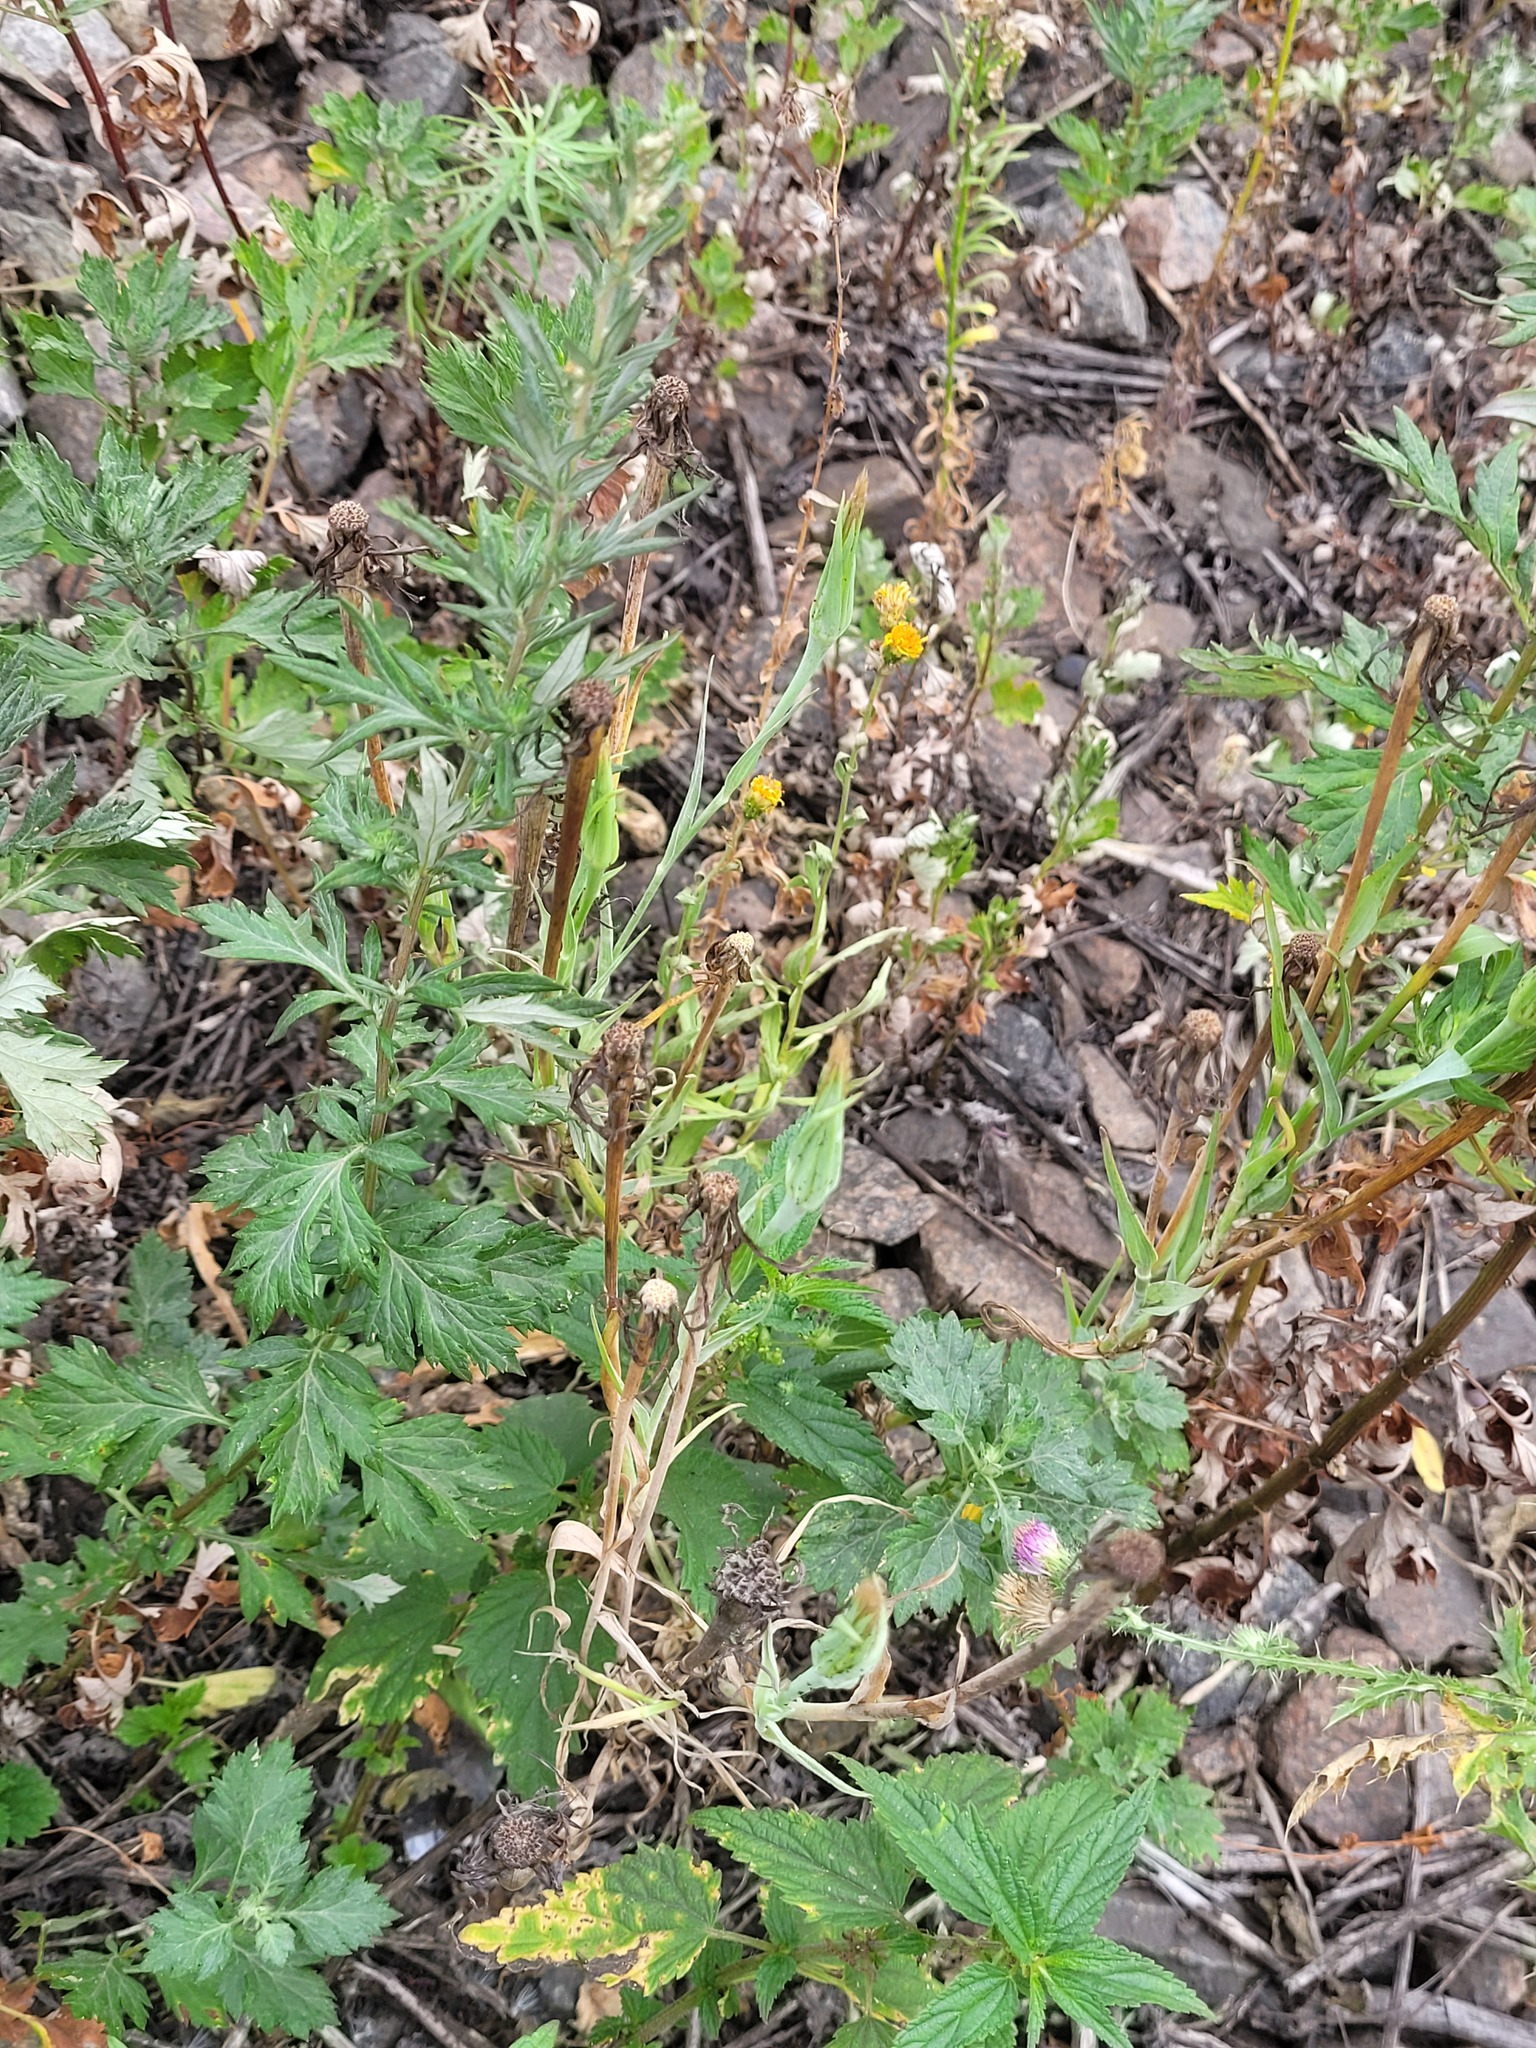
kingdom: Plantae
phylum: Tracheophyta
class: Magnoliopsida
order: Asterales
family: Asteraceae
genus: Tragopogon
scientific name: Tragopogon dubius
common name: Yellow salsify
